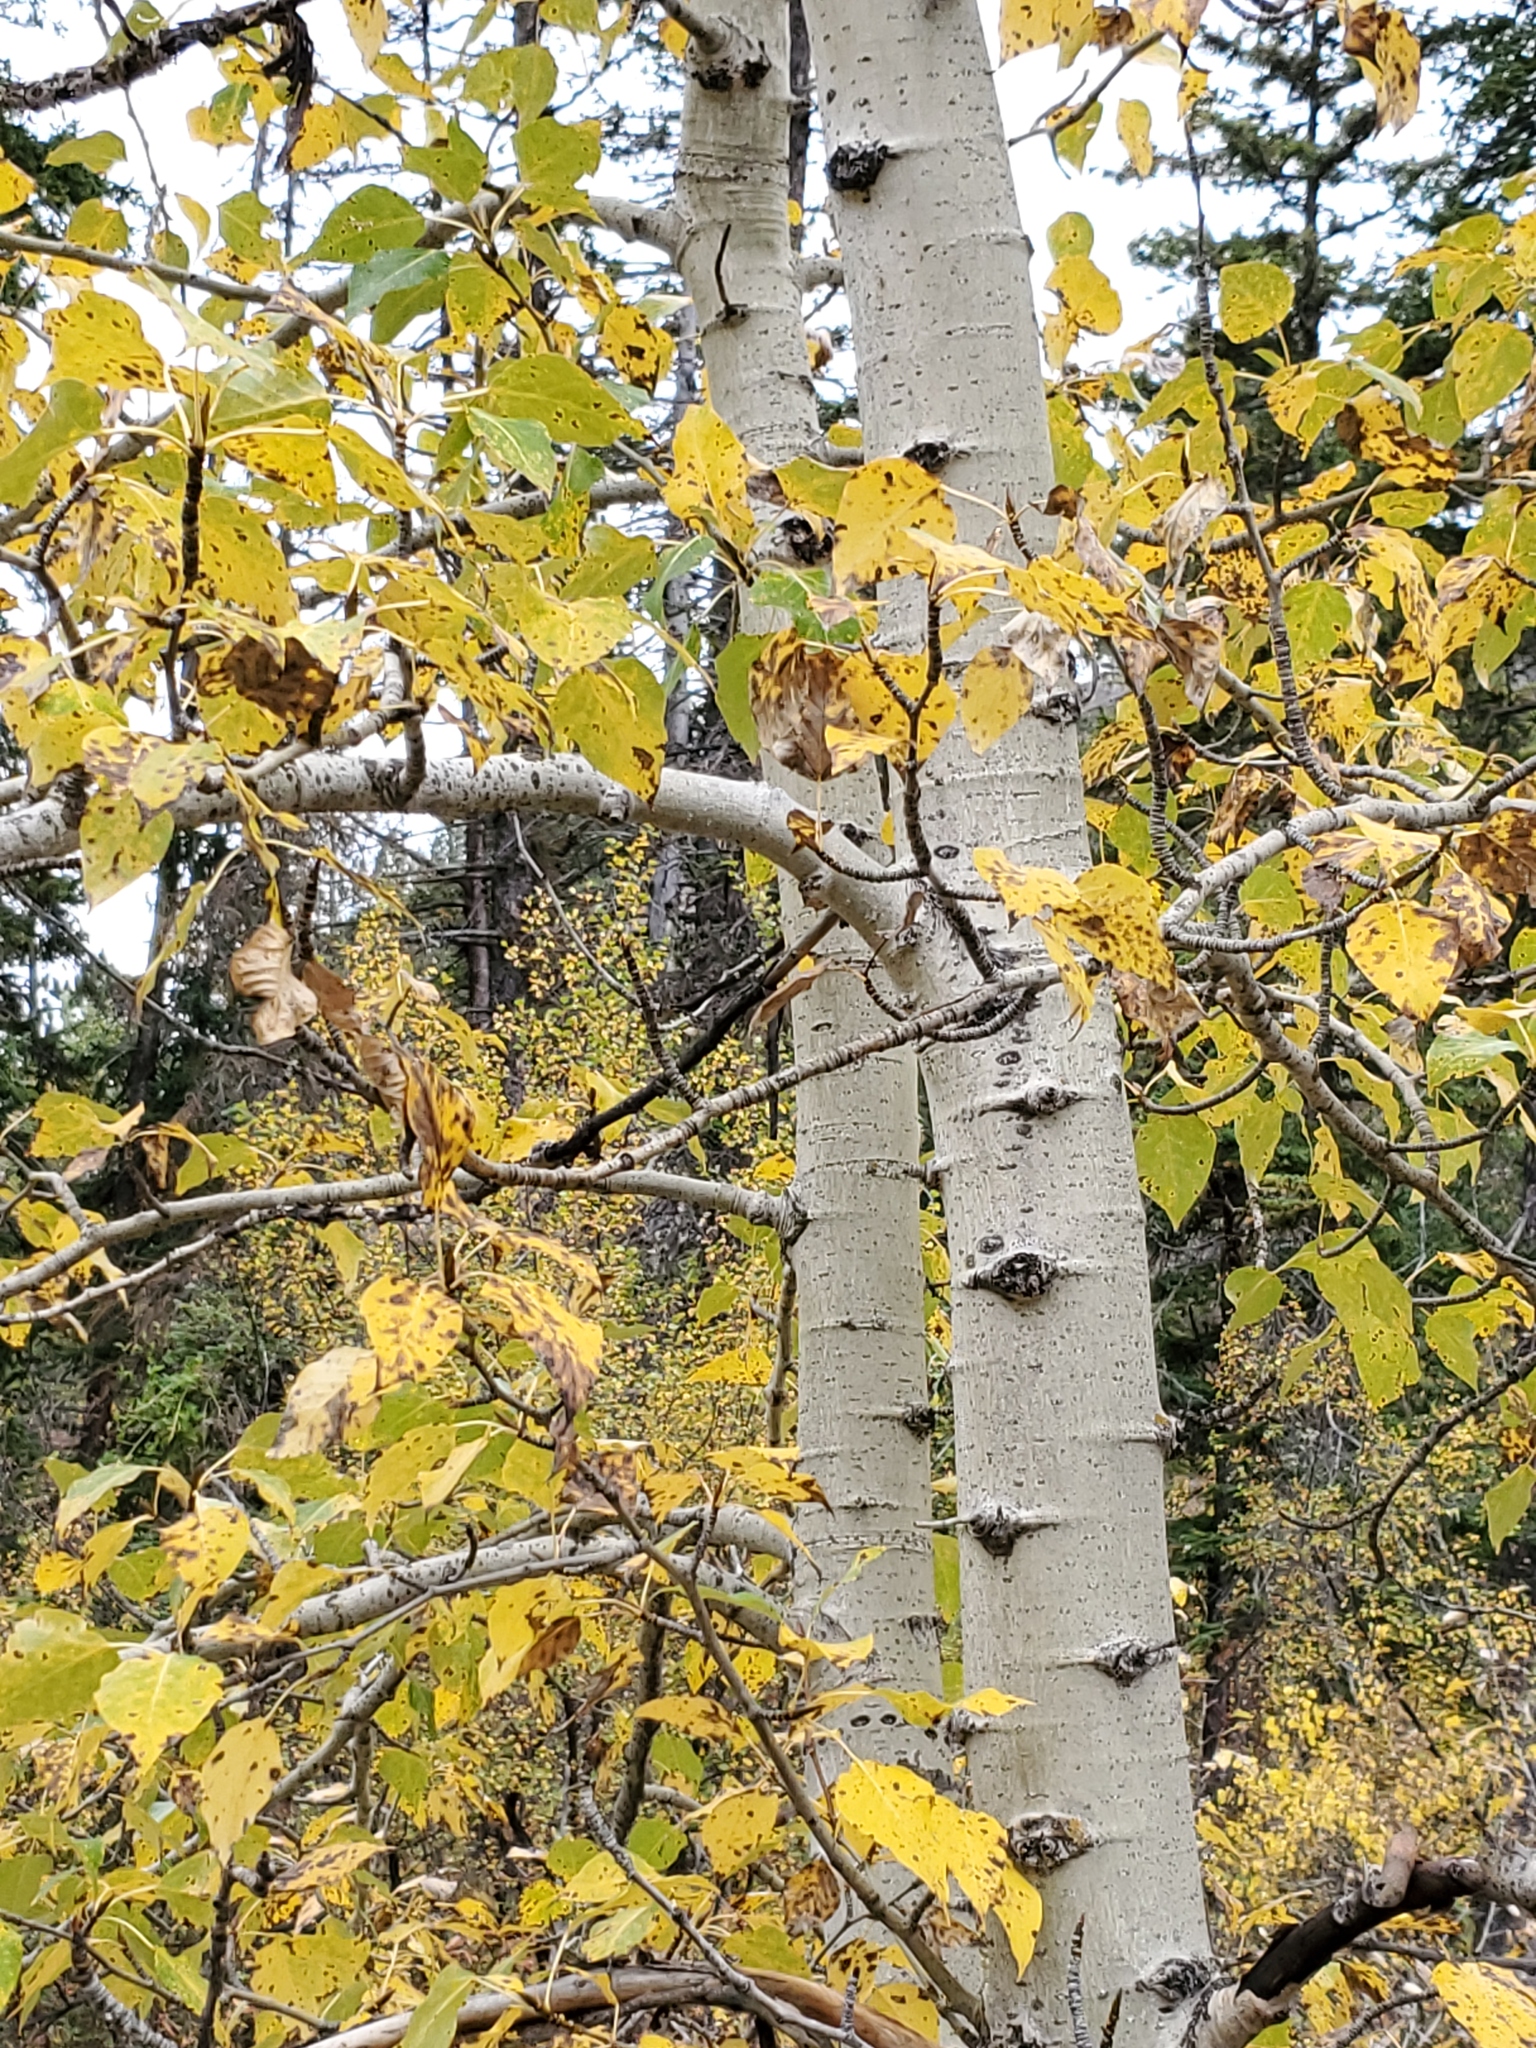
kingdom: Plantae
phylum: Tracheophyta
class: Magnoliopsida
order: Malpighiales
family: Salicaceae
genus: Populus
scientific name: Populus tremuloides
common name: Quaking aspen
